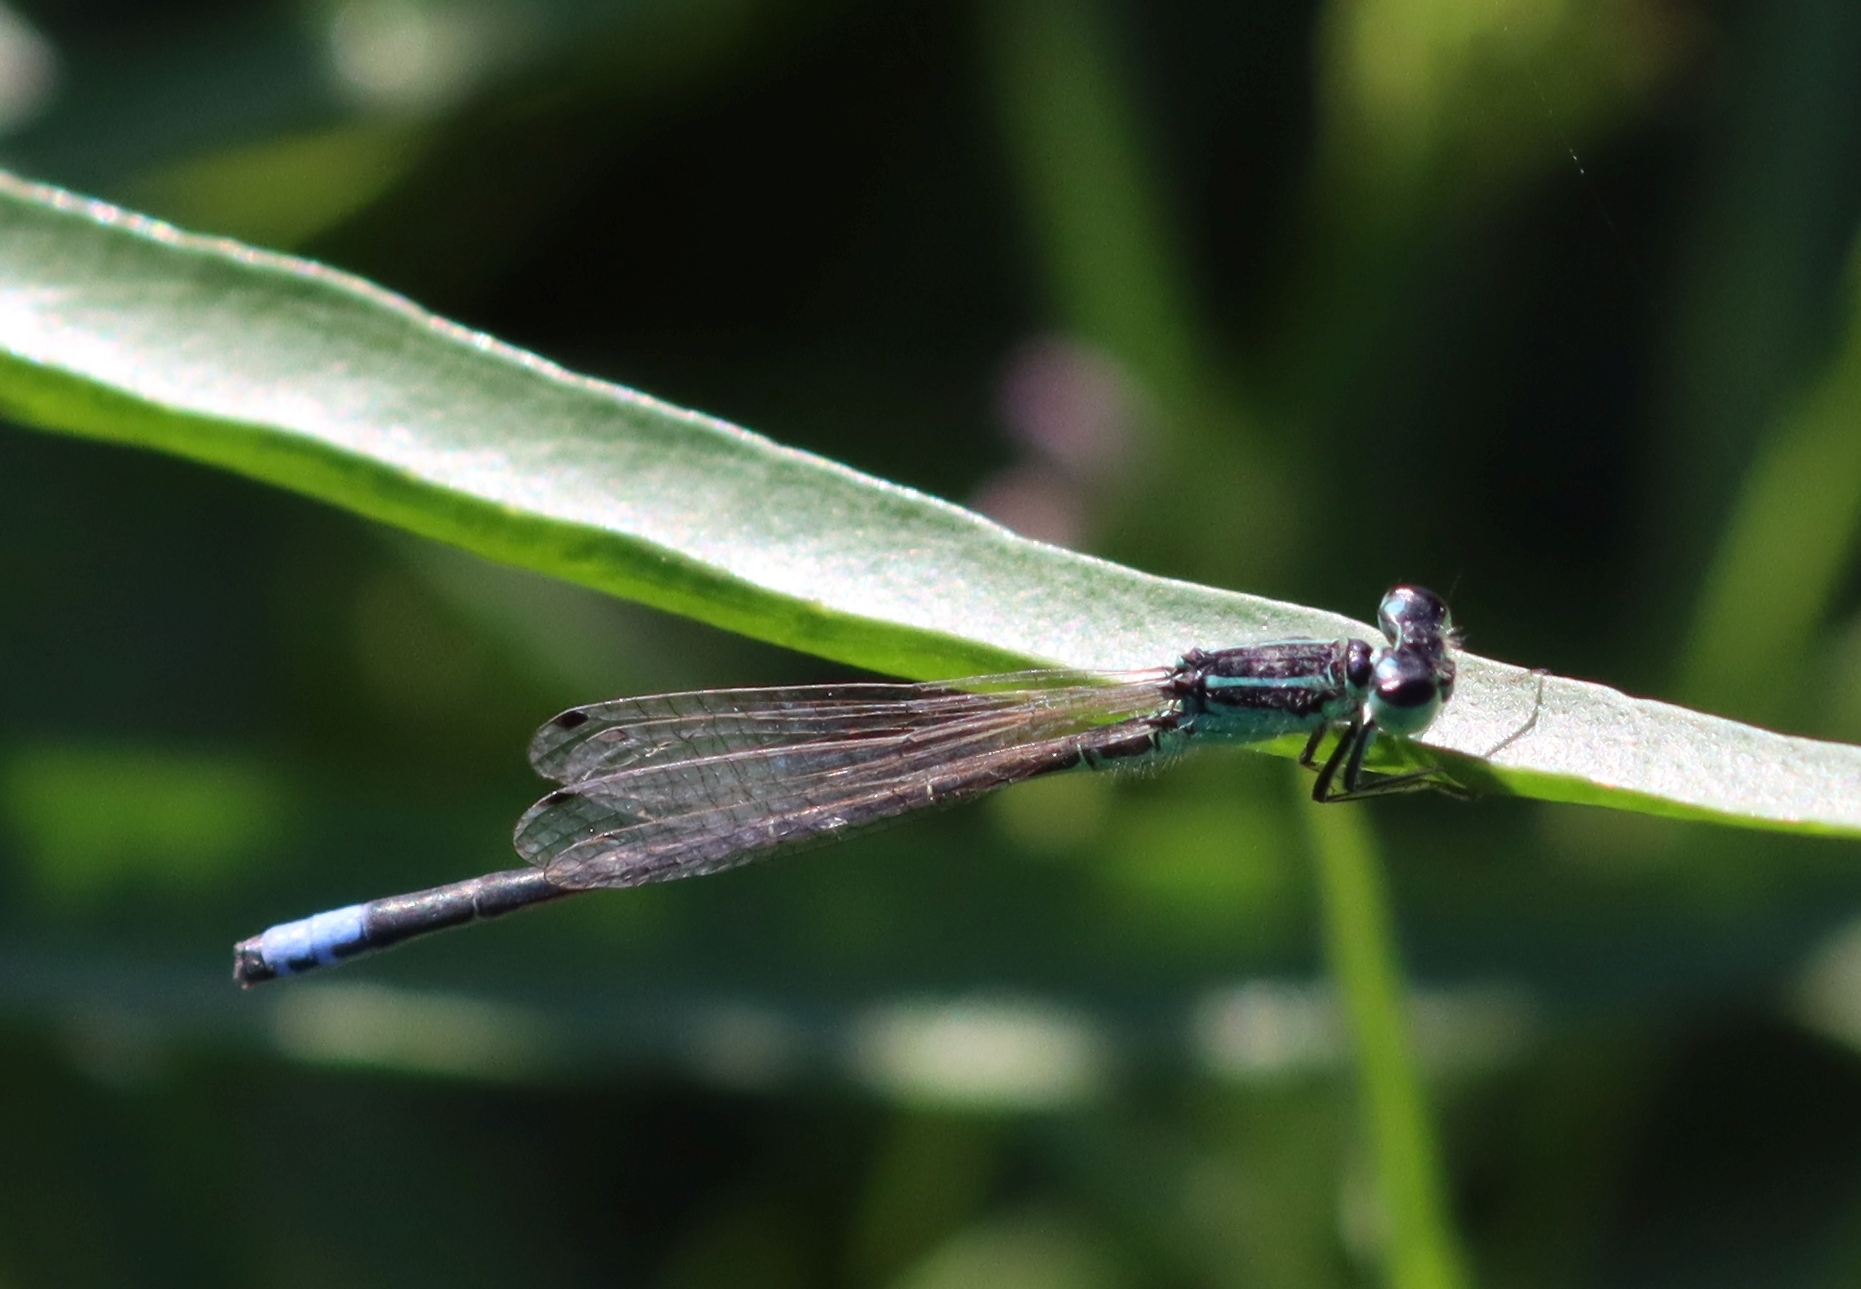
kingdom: Animalia
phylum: Arthropoda
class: Insecta
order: Odonata
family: Coenagrionidae
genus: Ischnura
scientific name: Ischnura verticalis
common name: Eastern forktail
